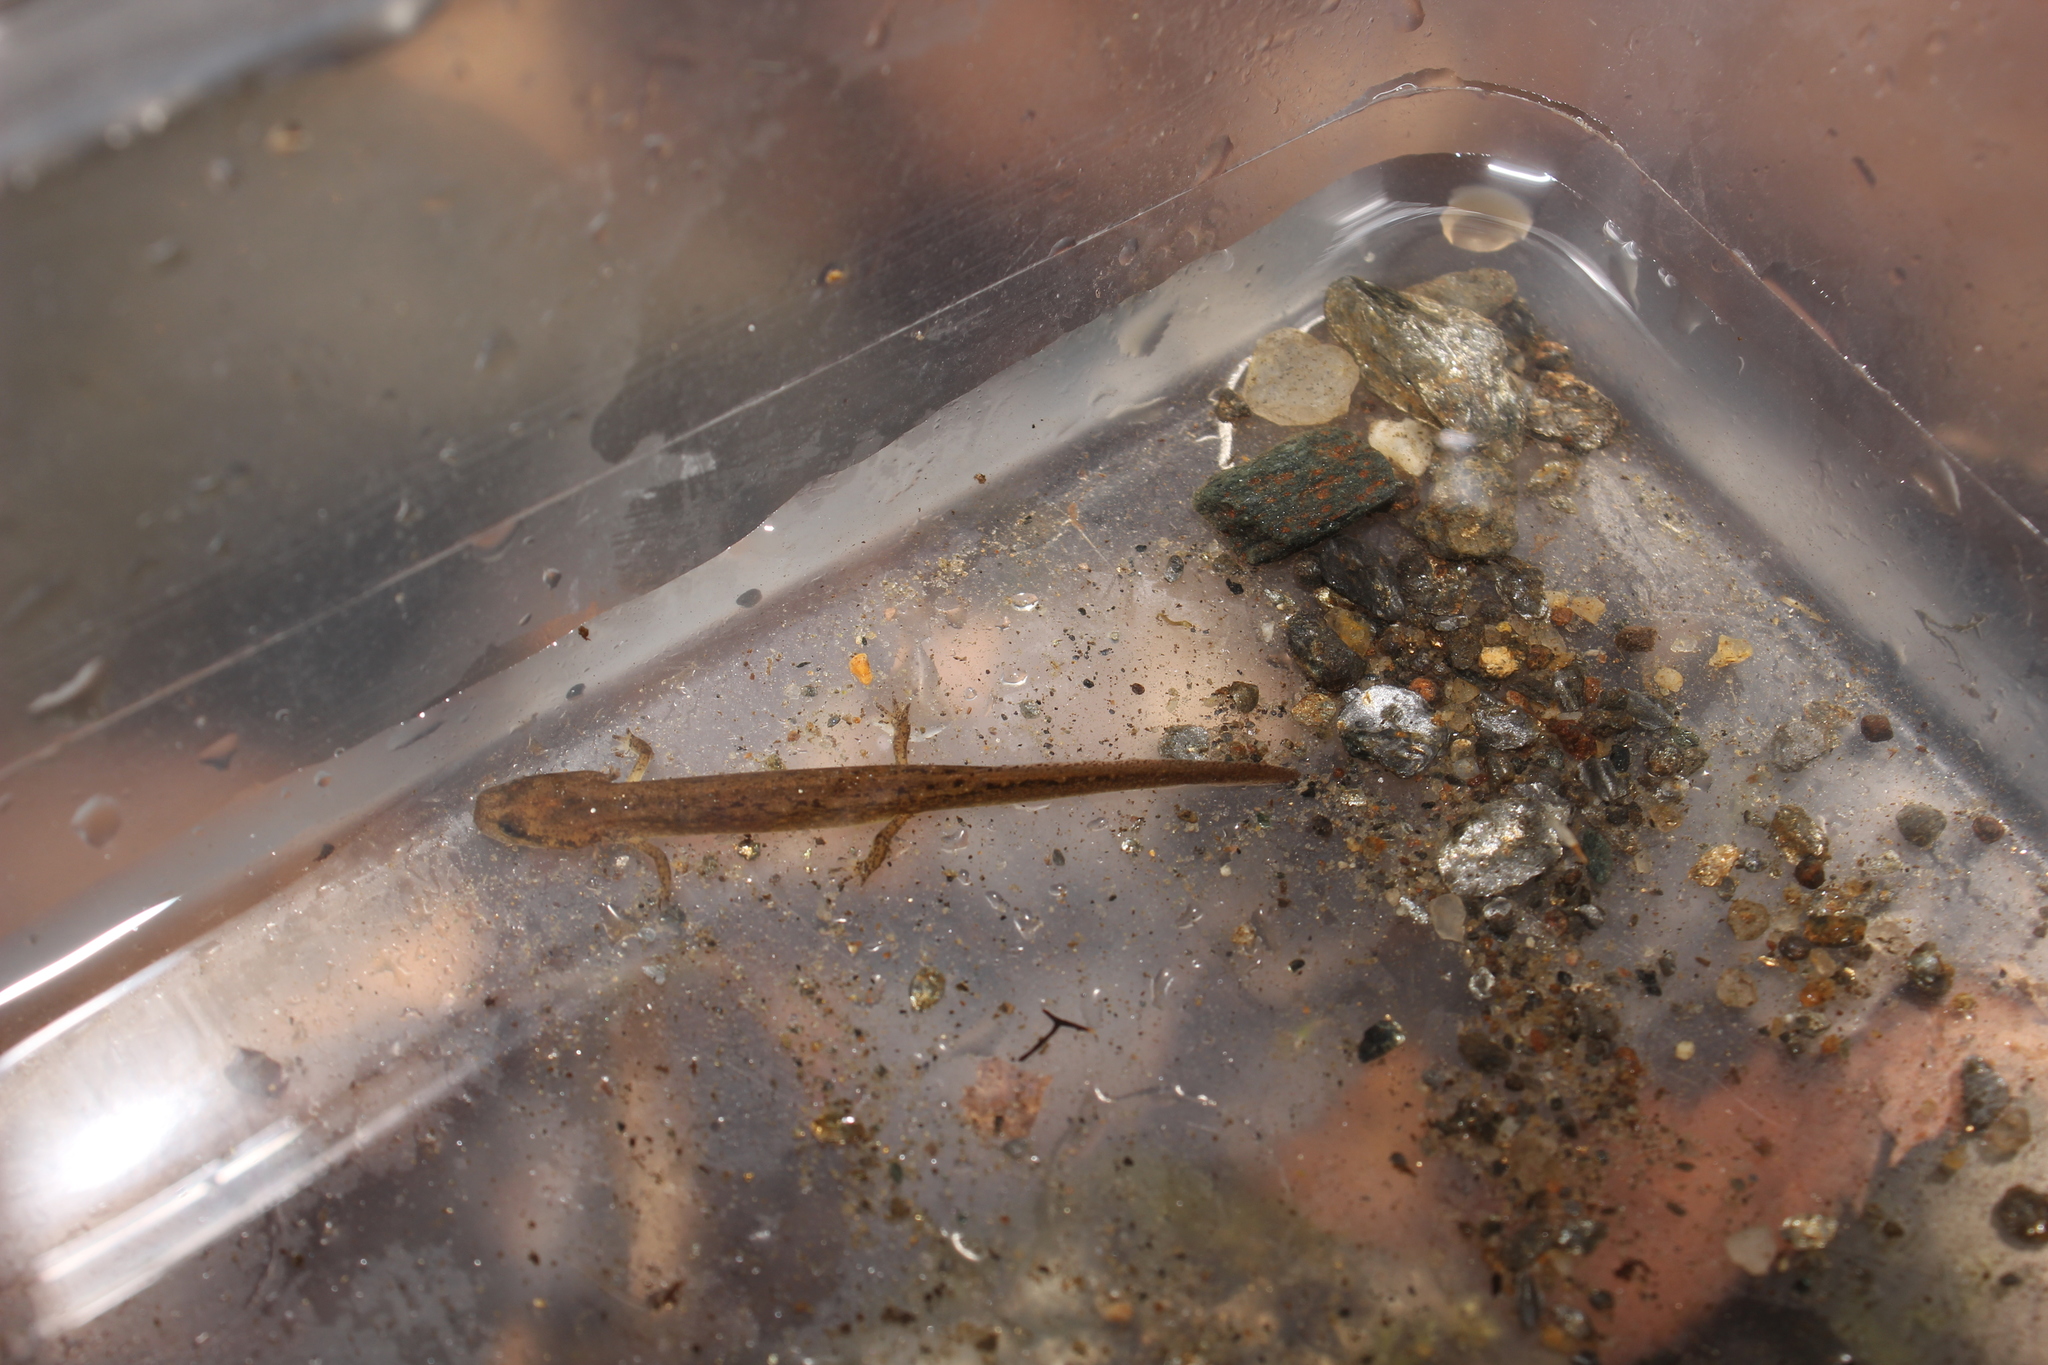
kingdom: Animalia
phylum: Chordata
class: Amphibia
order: Caudata
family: Plethodontidae
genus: Eurycea
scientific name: Eurycea bislineata
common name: Northern two-lined salamander
